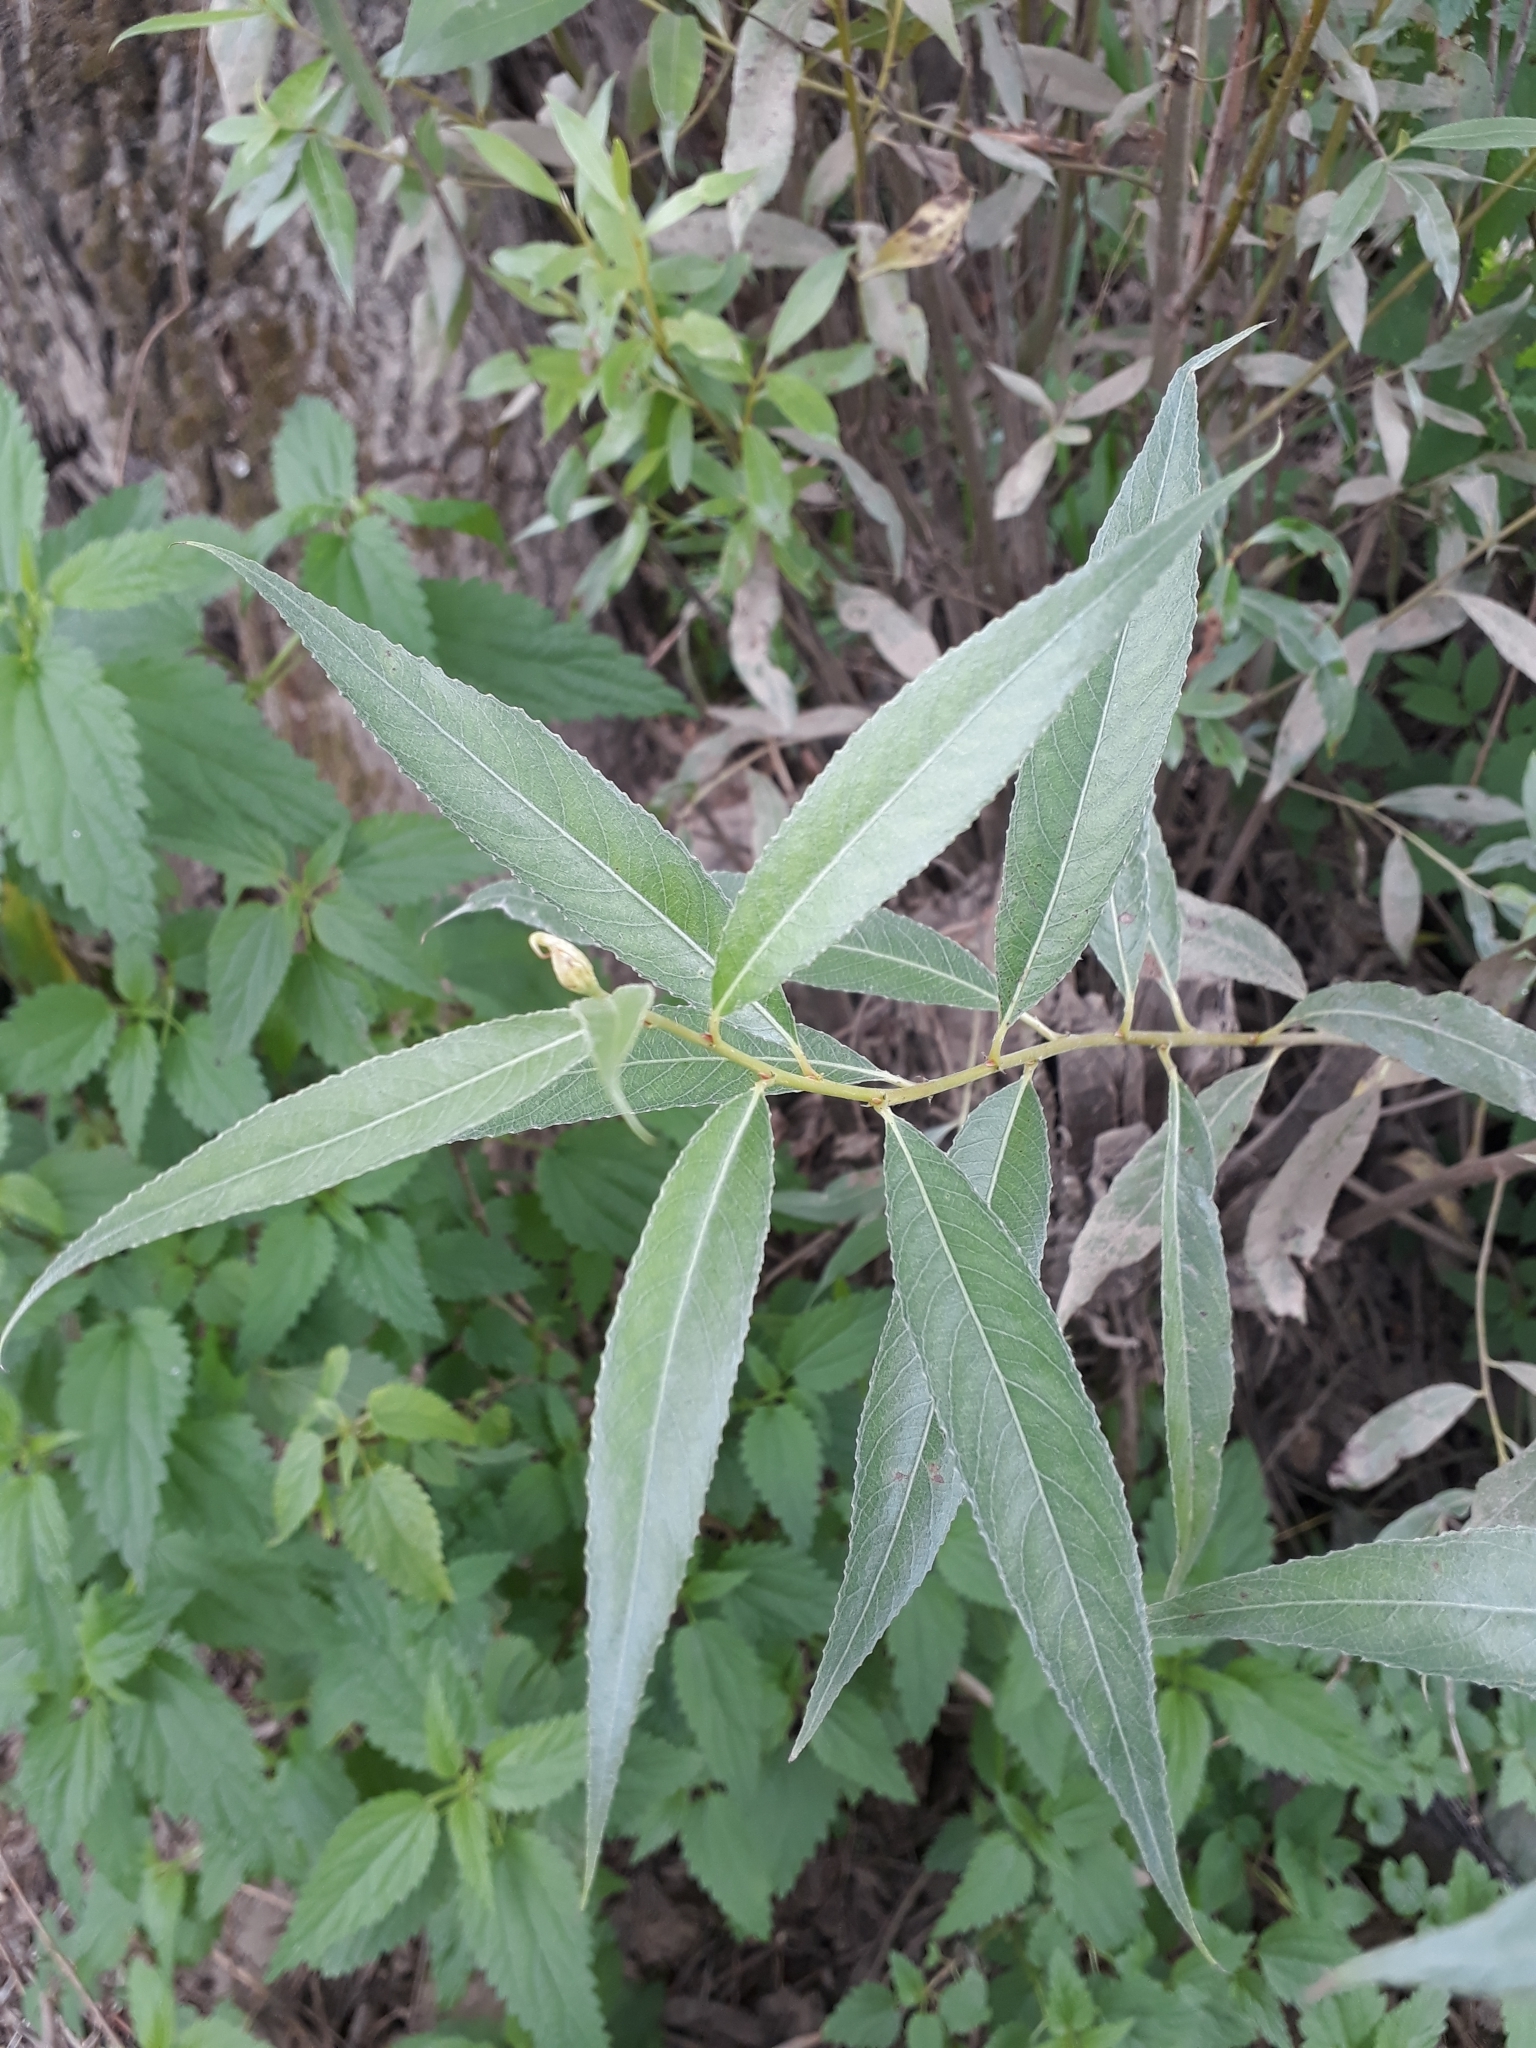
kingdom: Plantae
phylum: Tracheophyta
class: Magnoliopsida
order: Malpighiales
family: Salicaceae
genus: Salix
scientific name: Salix alba
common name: White willow
